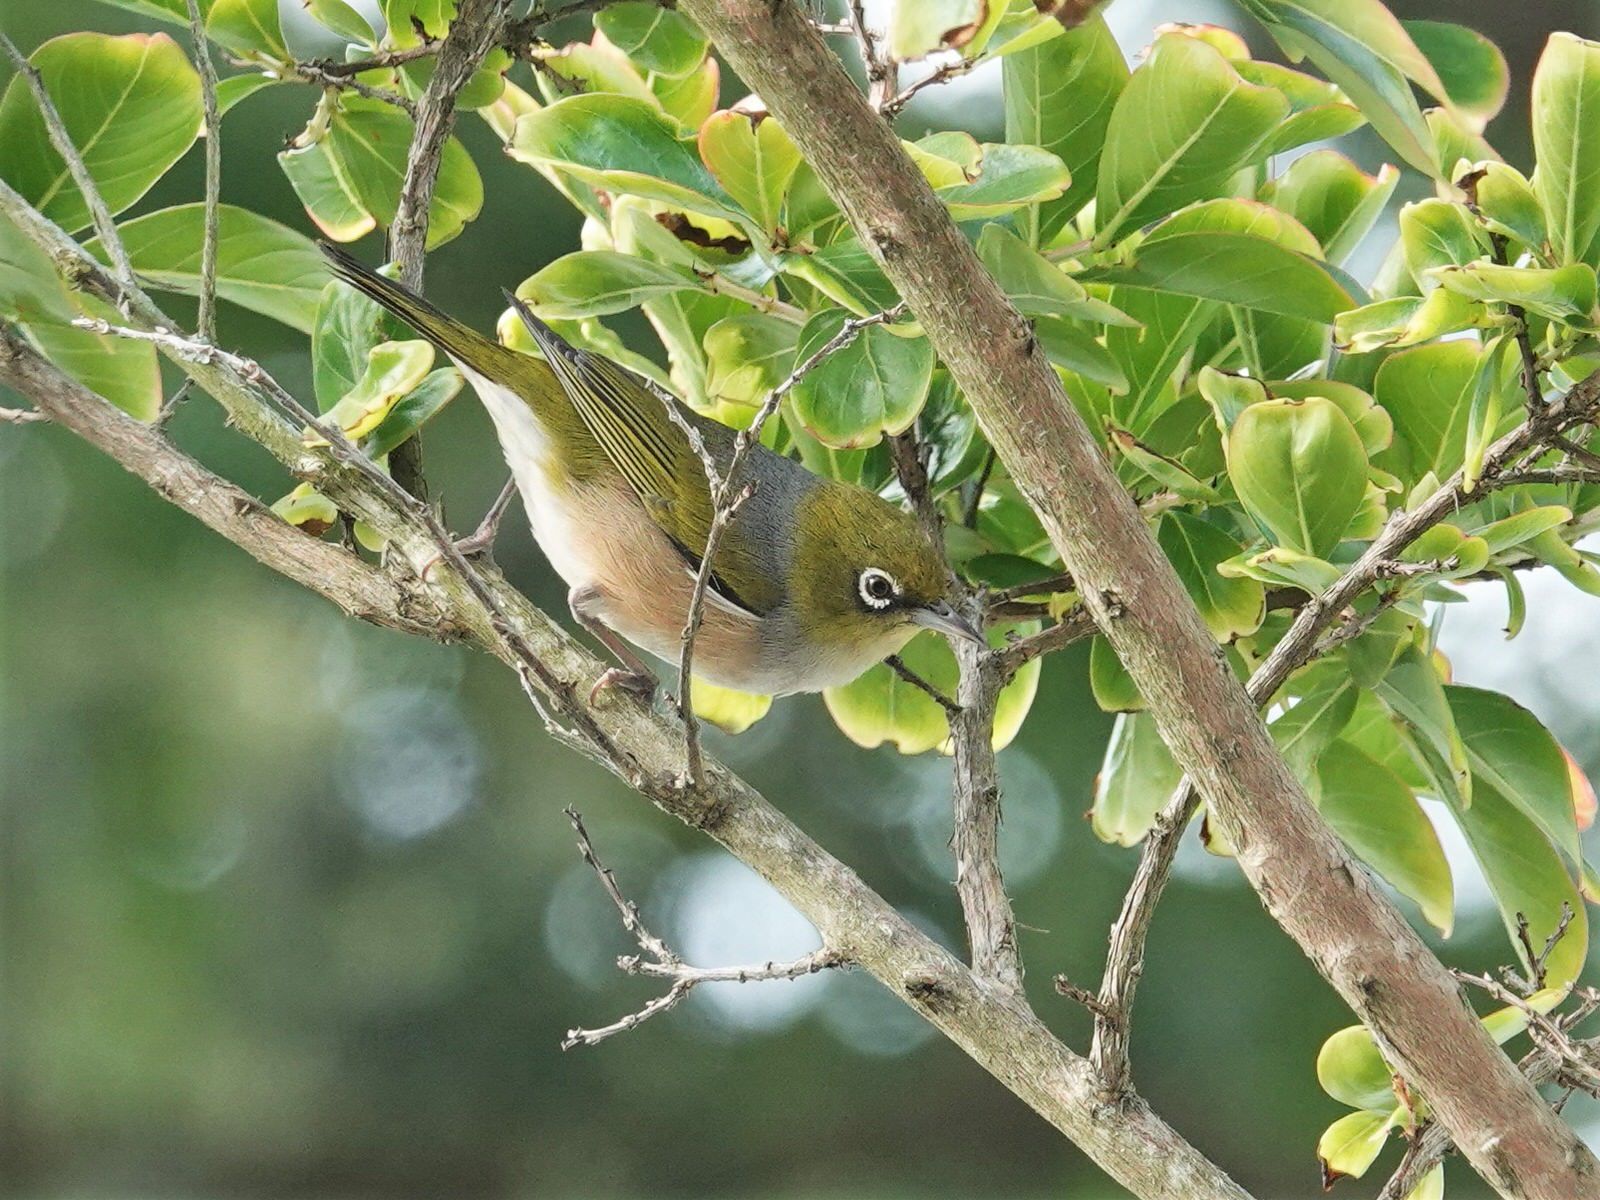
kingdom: Animalia
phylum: Chordata
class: Aves
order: Passeriformes
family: Zosteropidae
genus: Zosterops
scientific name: Zosterops lateralis
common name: Silvereye
